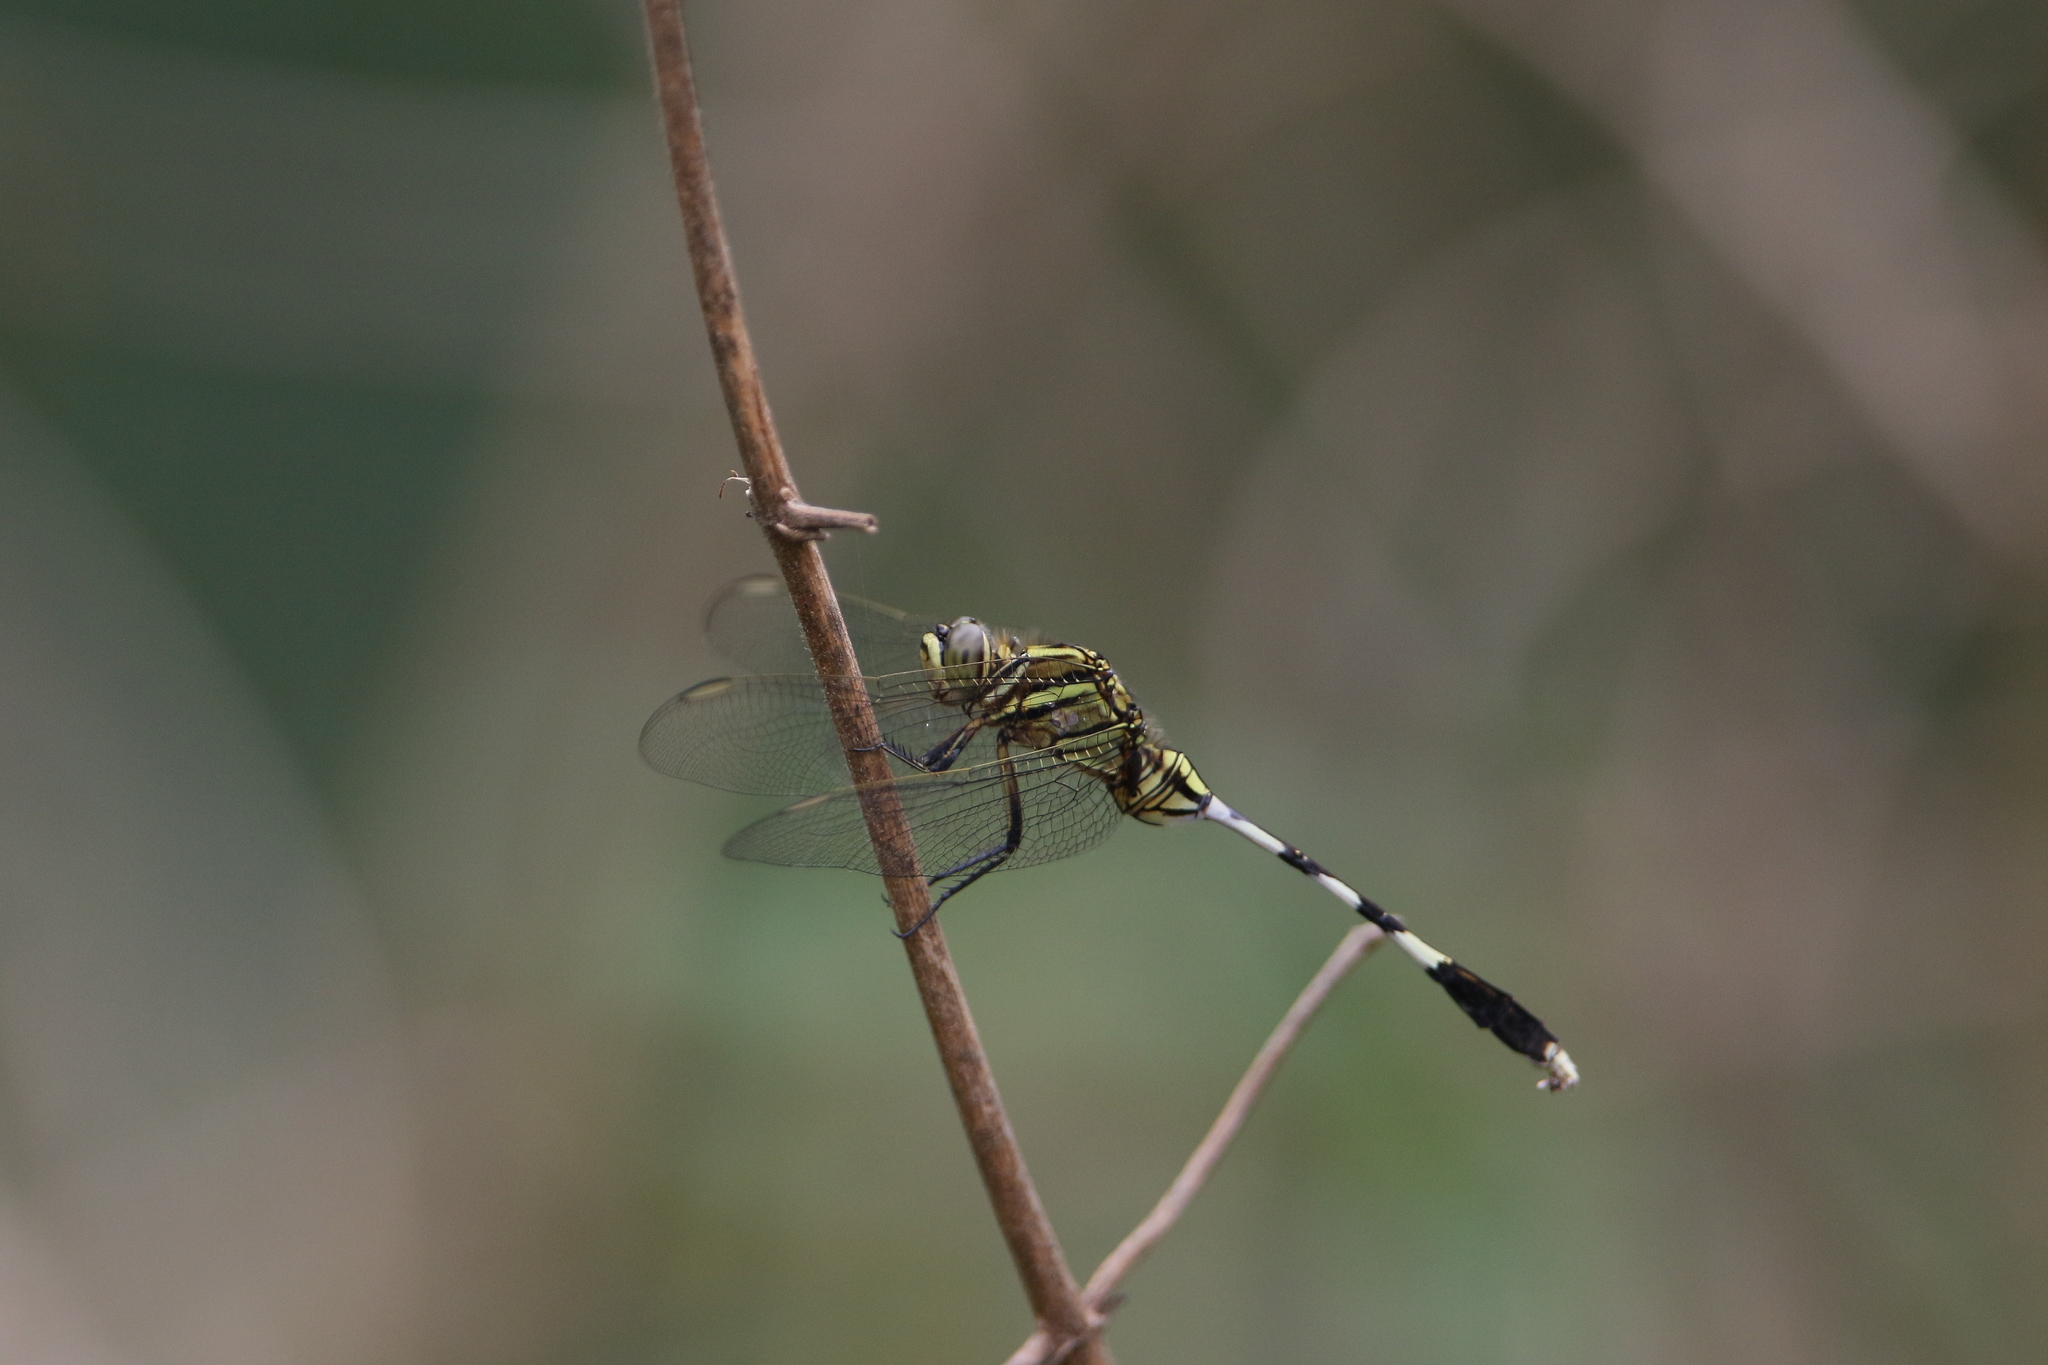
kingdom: Animalia
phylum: Arthropoda
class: Insecta
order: Odonata
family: Libellulidae
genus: Orthetrum
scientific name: Orthetrum sabina
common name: Slender skimmer
